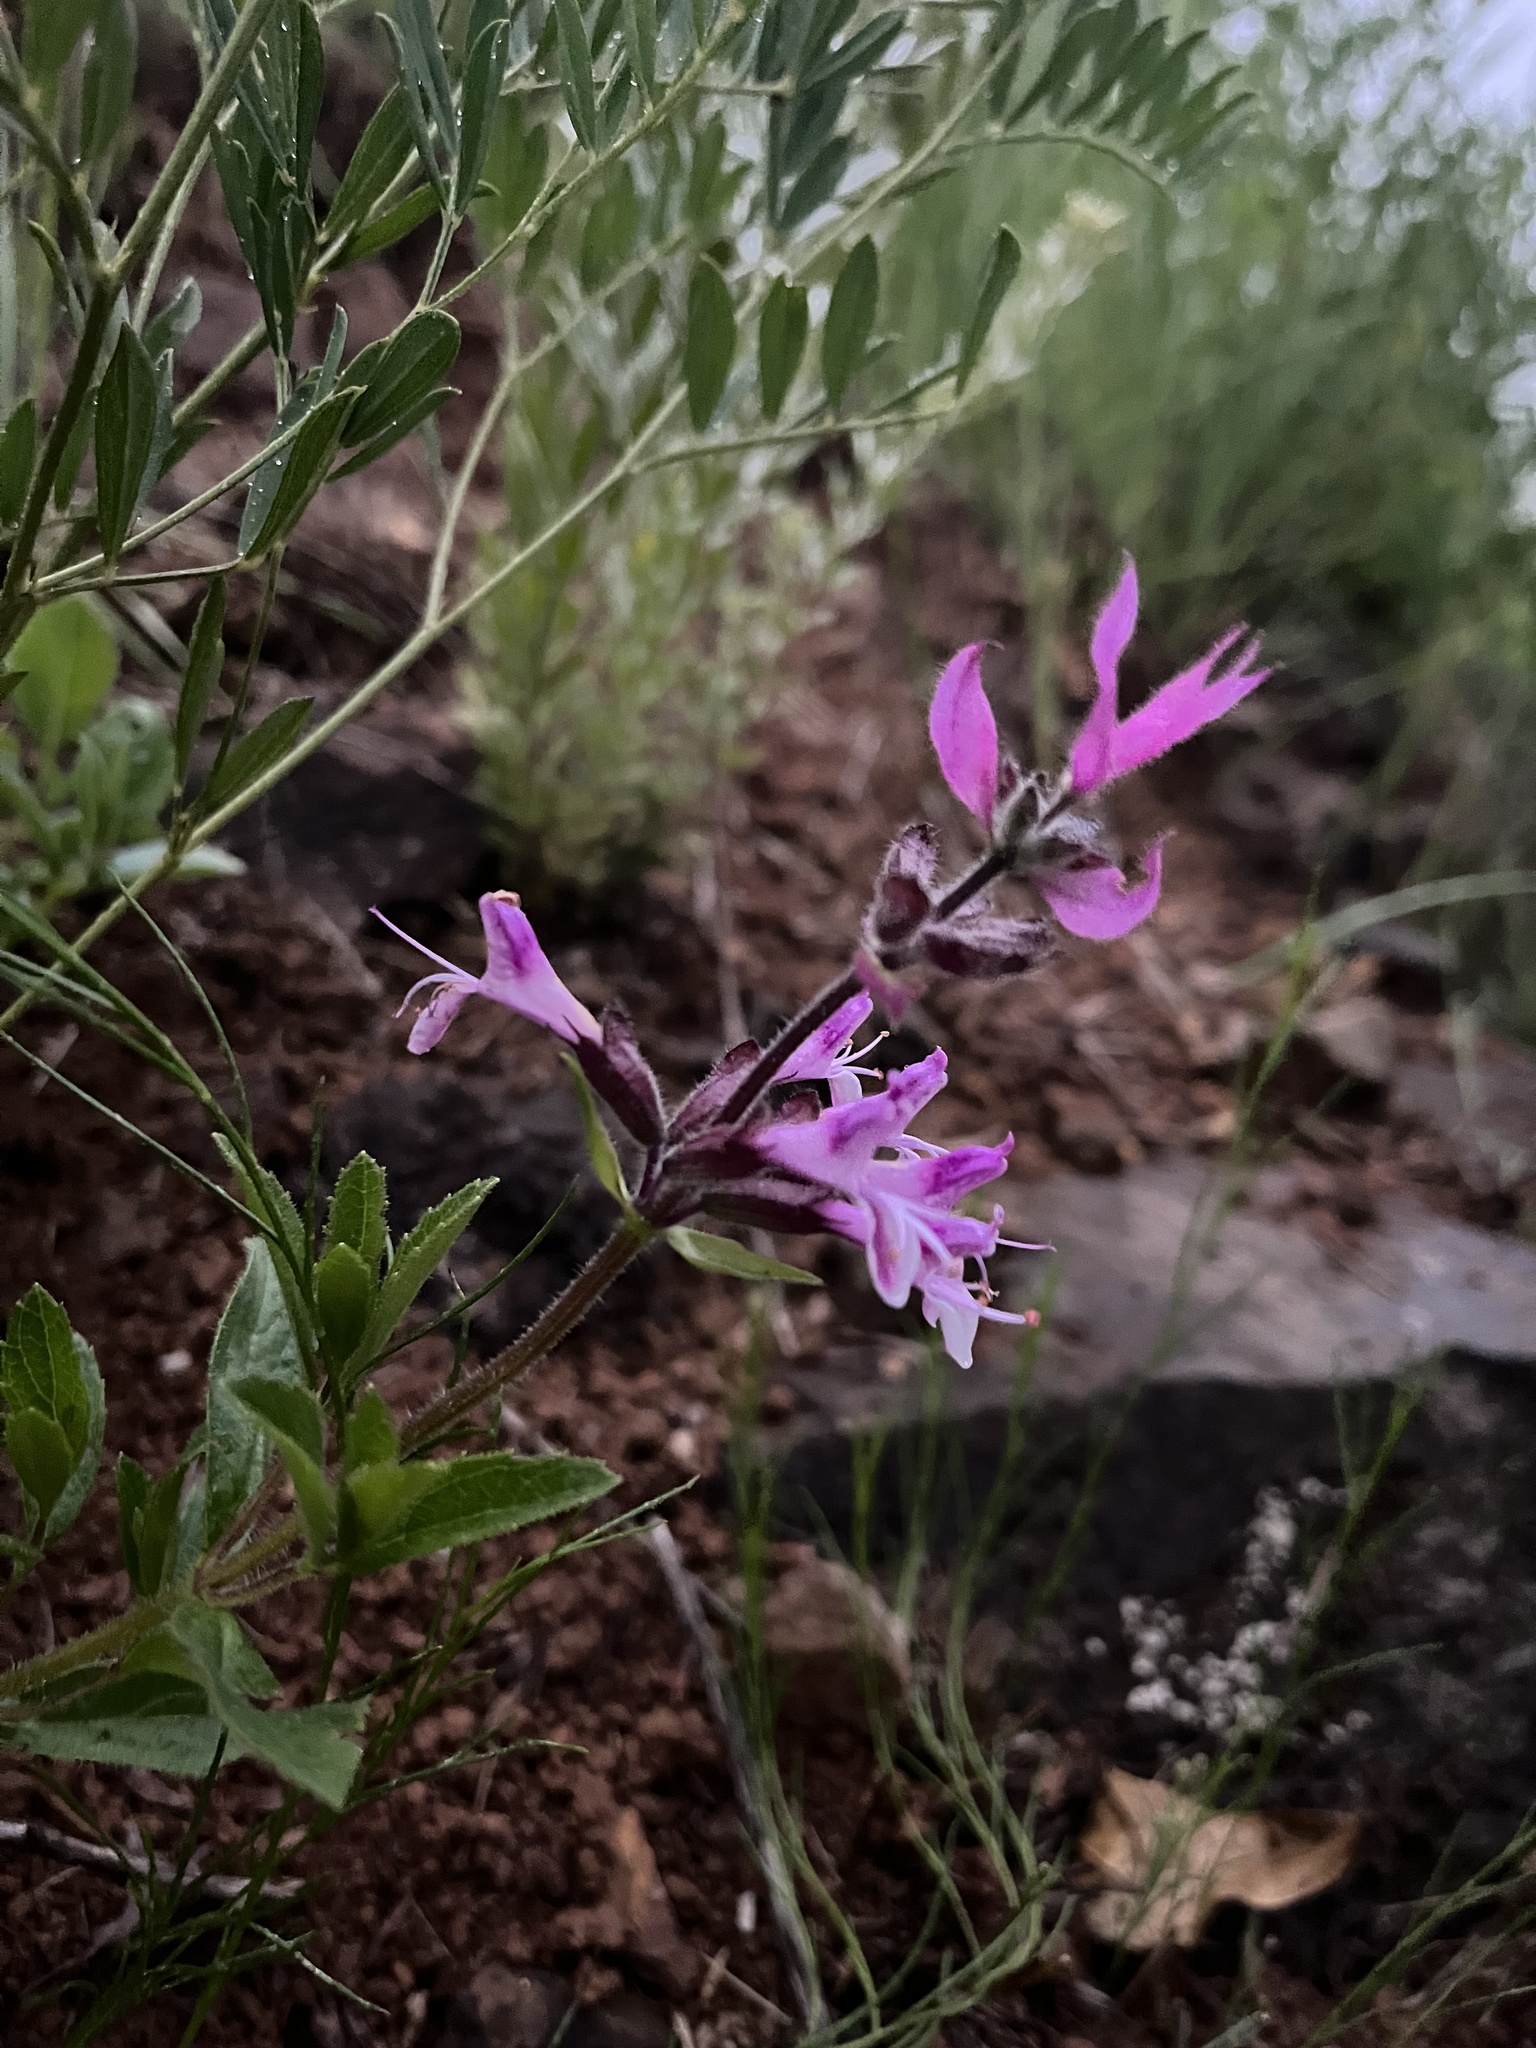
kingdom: Plantae
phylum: Tracheophyta
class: Magnoliopsida
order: Lamiales
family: Lamiaceae
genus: Syncolostemon
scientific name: Syncolostemon
